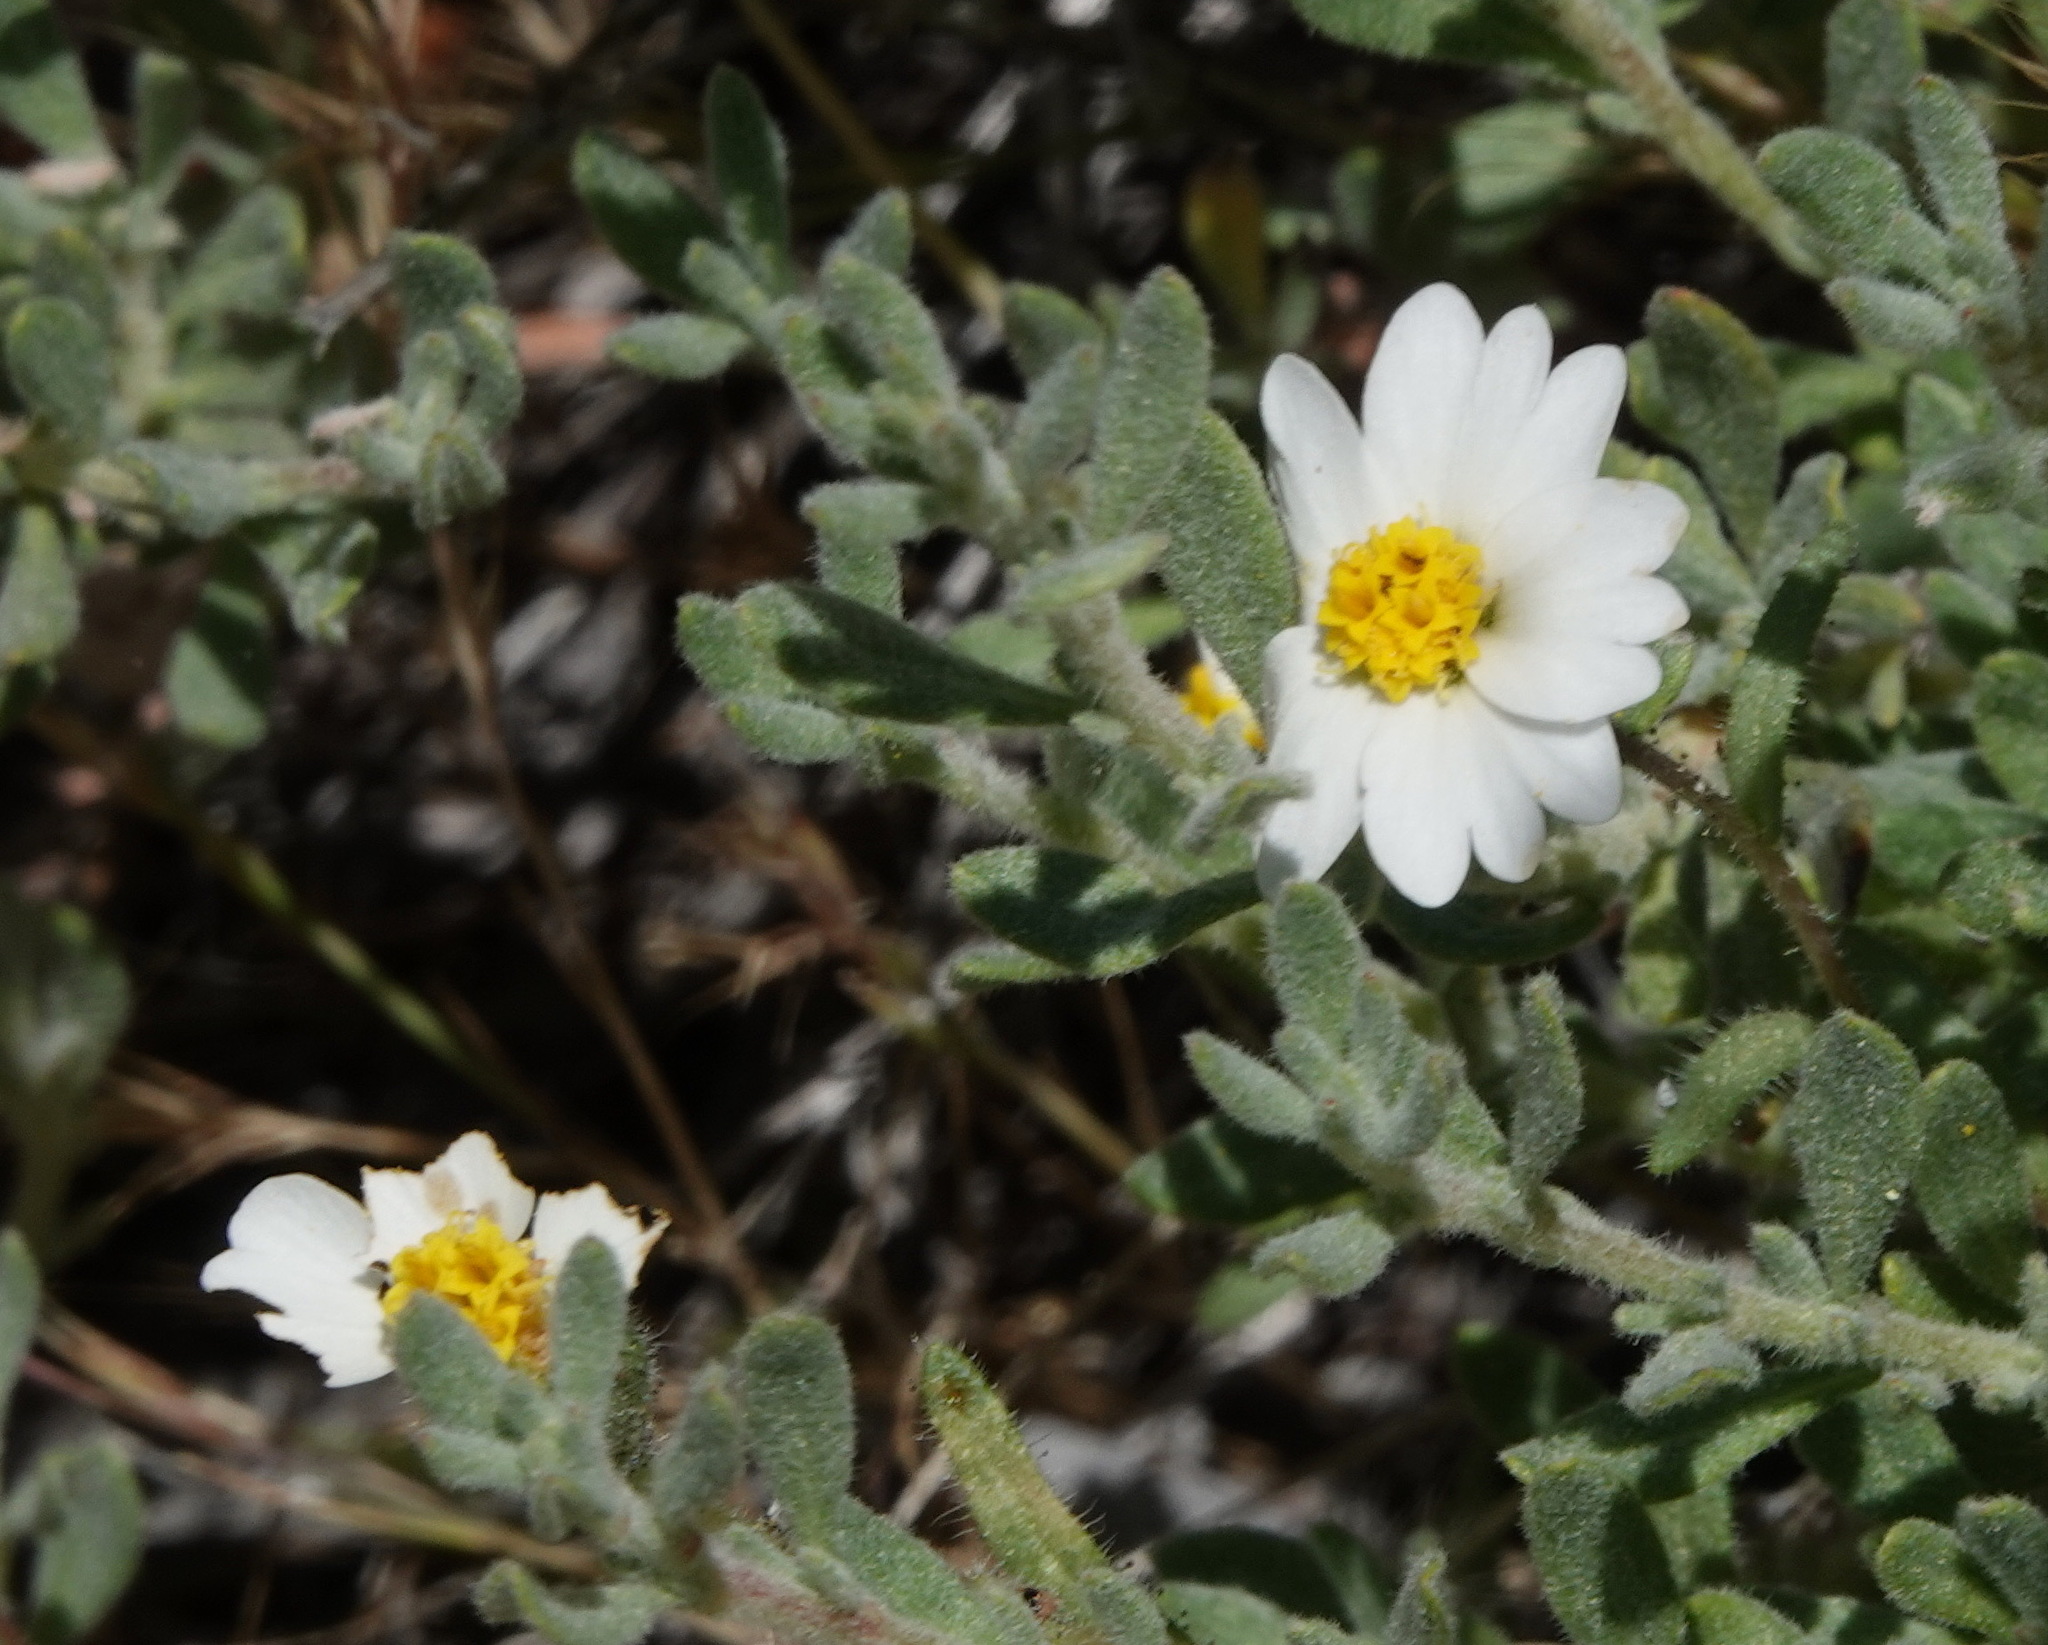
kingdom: Plantae
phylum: Tracheophyta
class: Magnoliopsida
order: Asterales
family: Asteraceae
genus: Layia
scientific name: Layia glandulosa
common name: White layia
